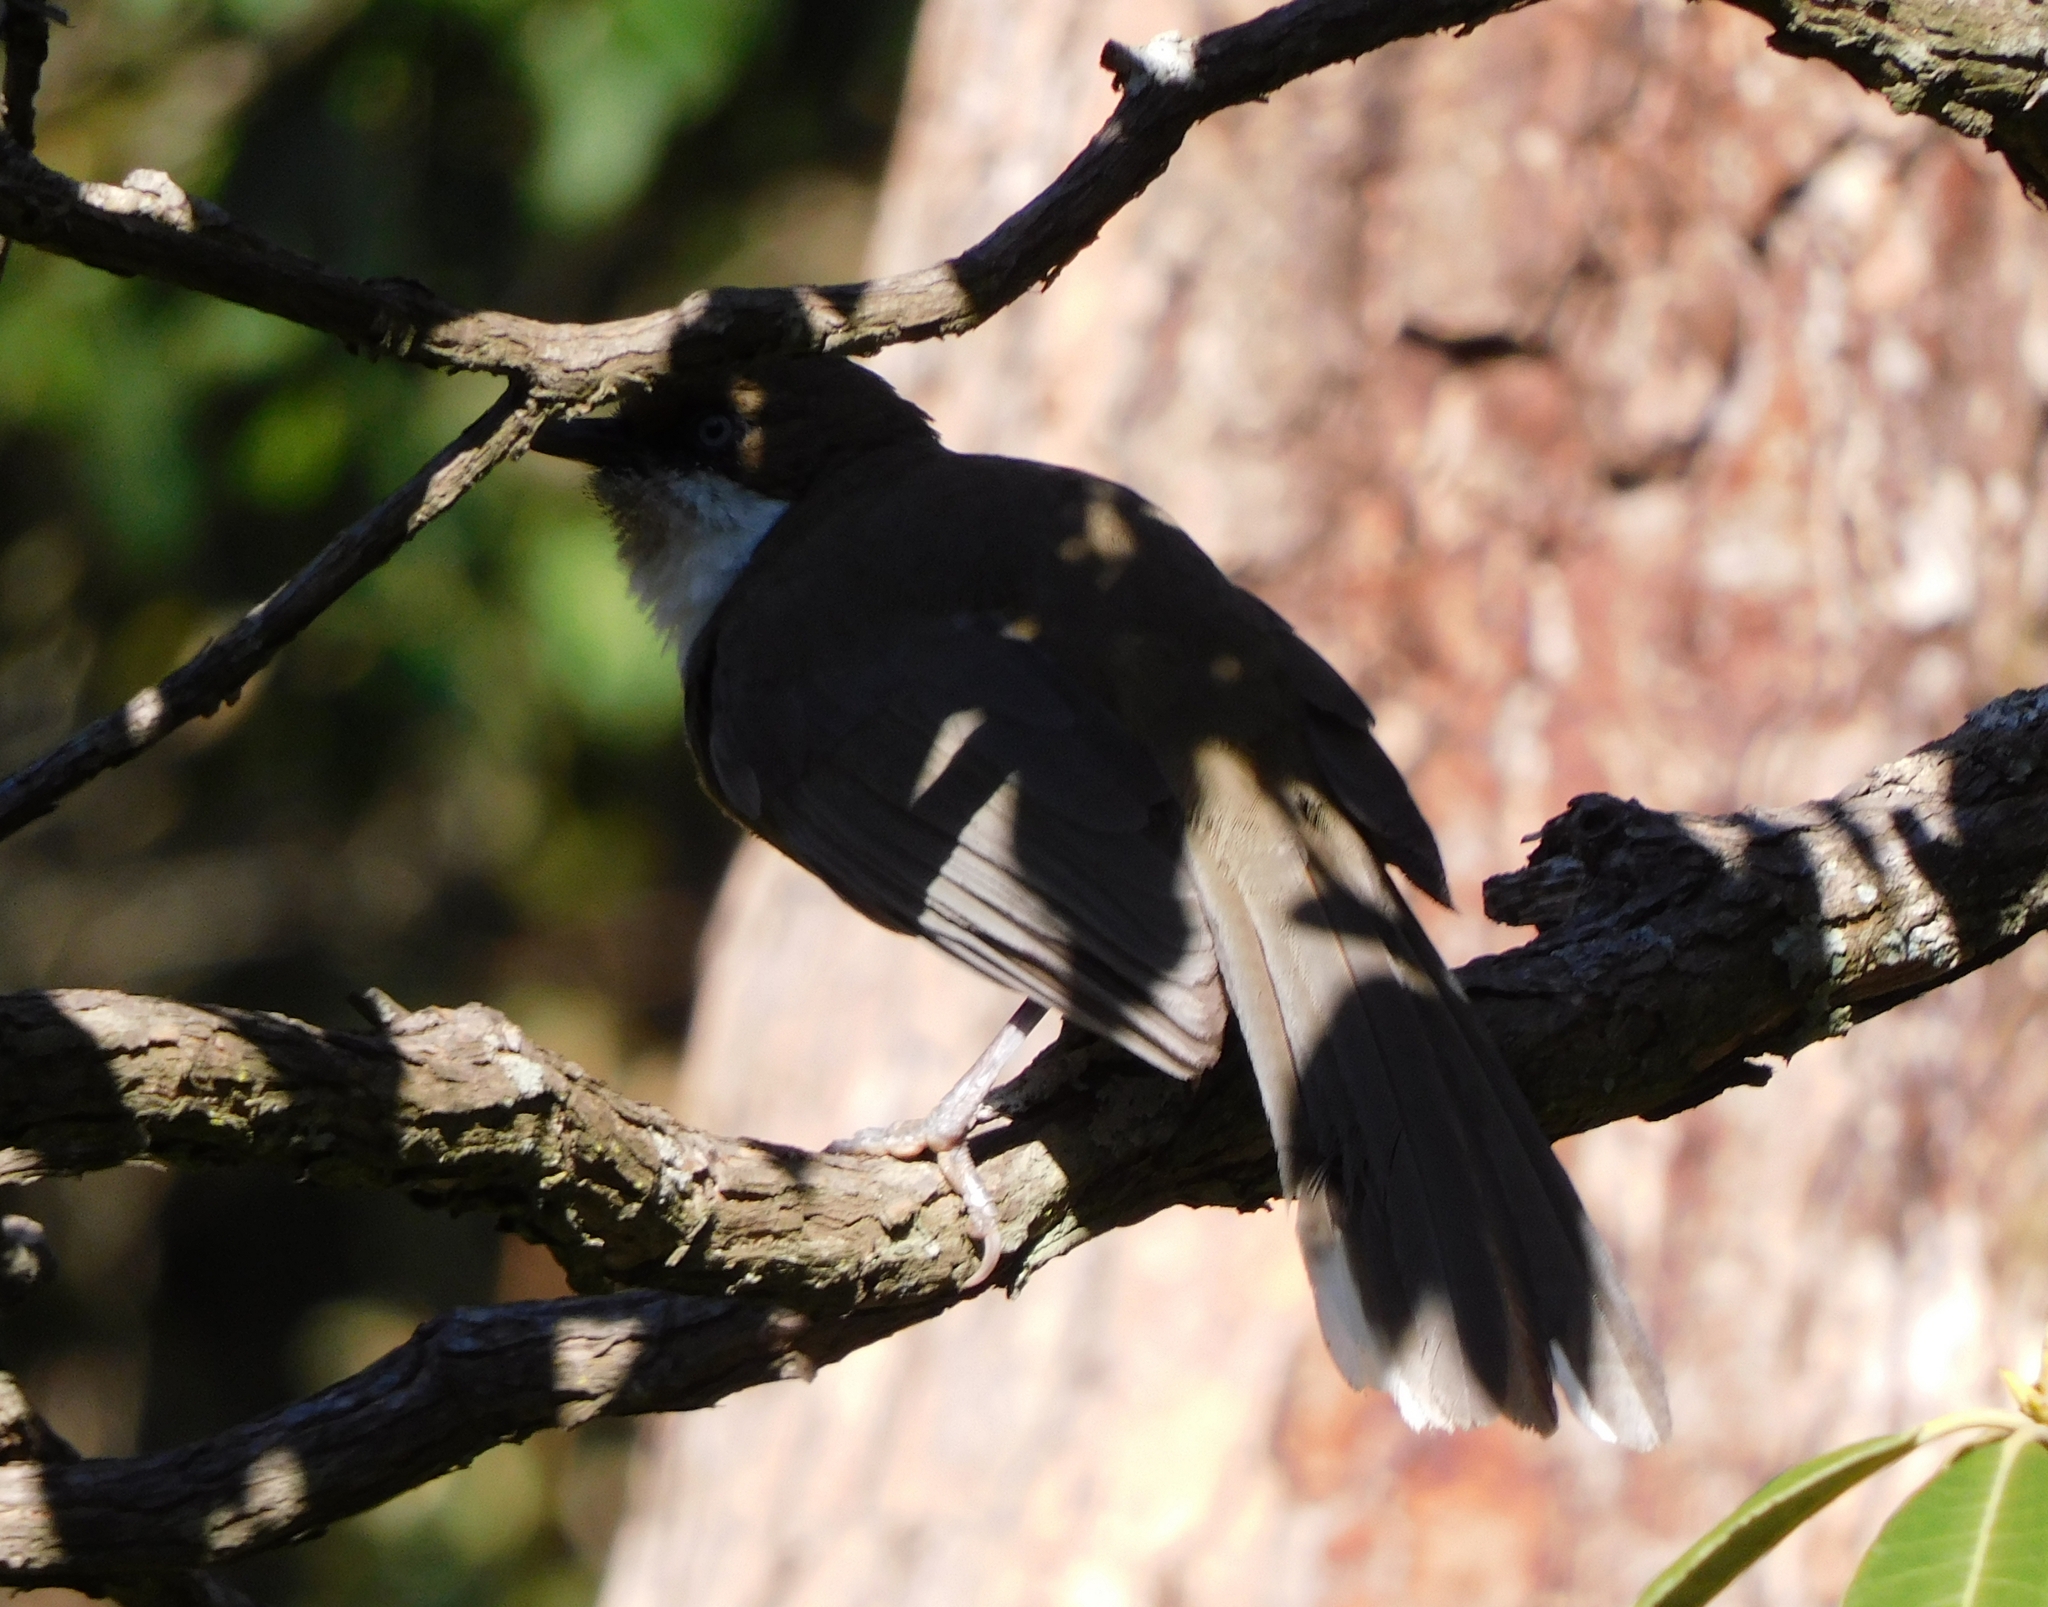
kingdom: Animalia
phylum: Chordata
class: Aves
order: Passeriformes
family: Leiothrichidae
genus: Garrulax
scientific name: Garrulax albogularis
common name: White-throated laughingthrush
